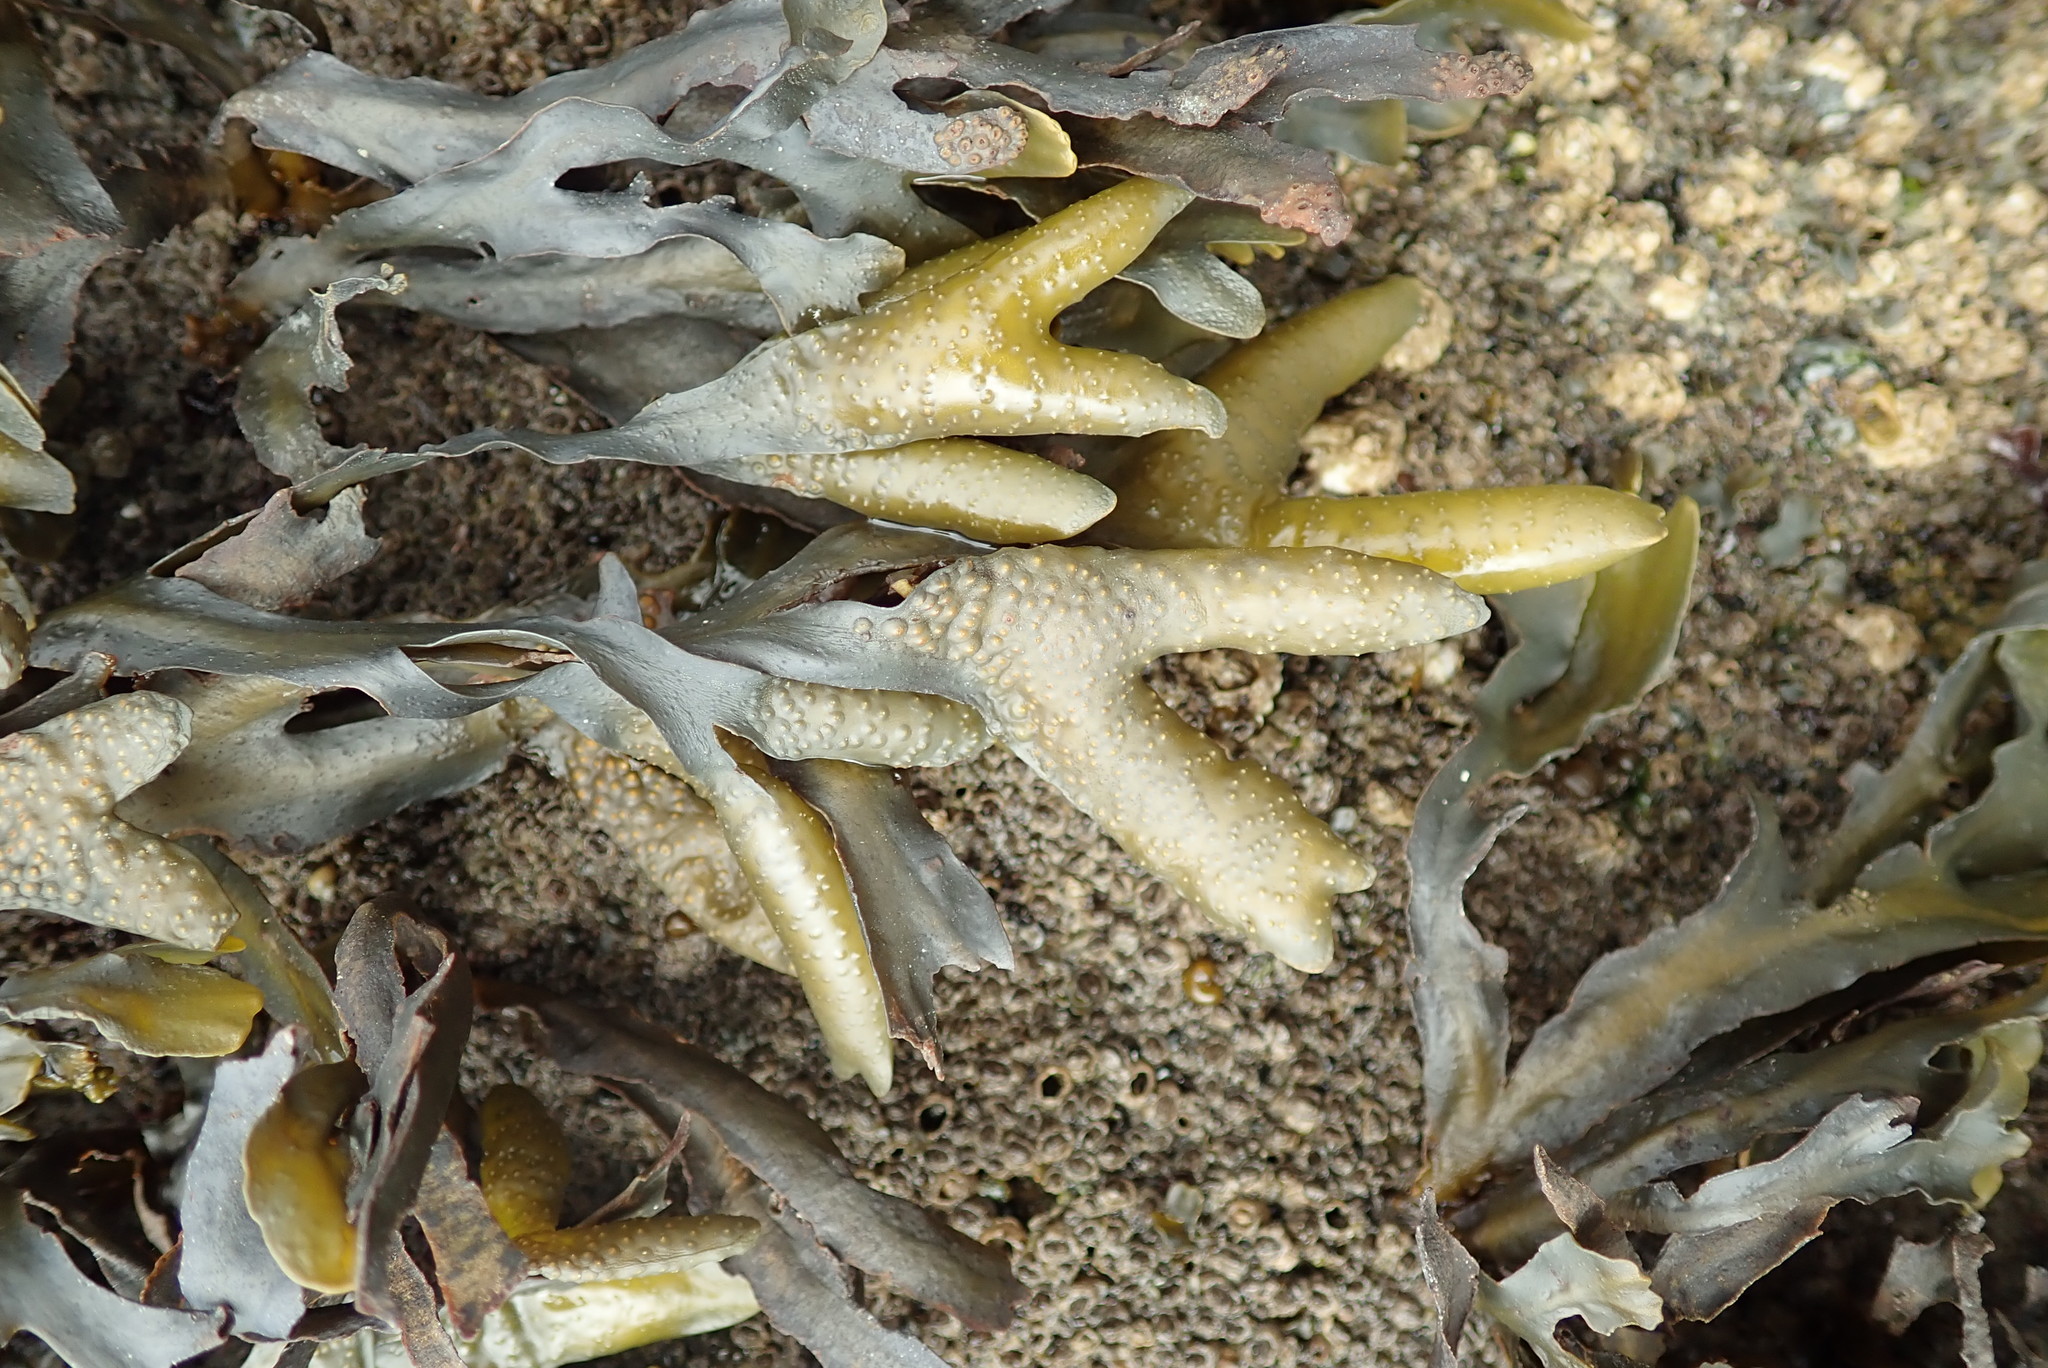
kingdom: Chromista
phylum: Ochrophyta
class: Phaeophyceae
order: Fucales
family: Fucaceae
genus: Fucus
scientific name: Fucus distichus
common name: Rockweed
